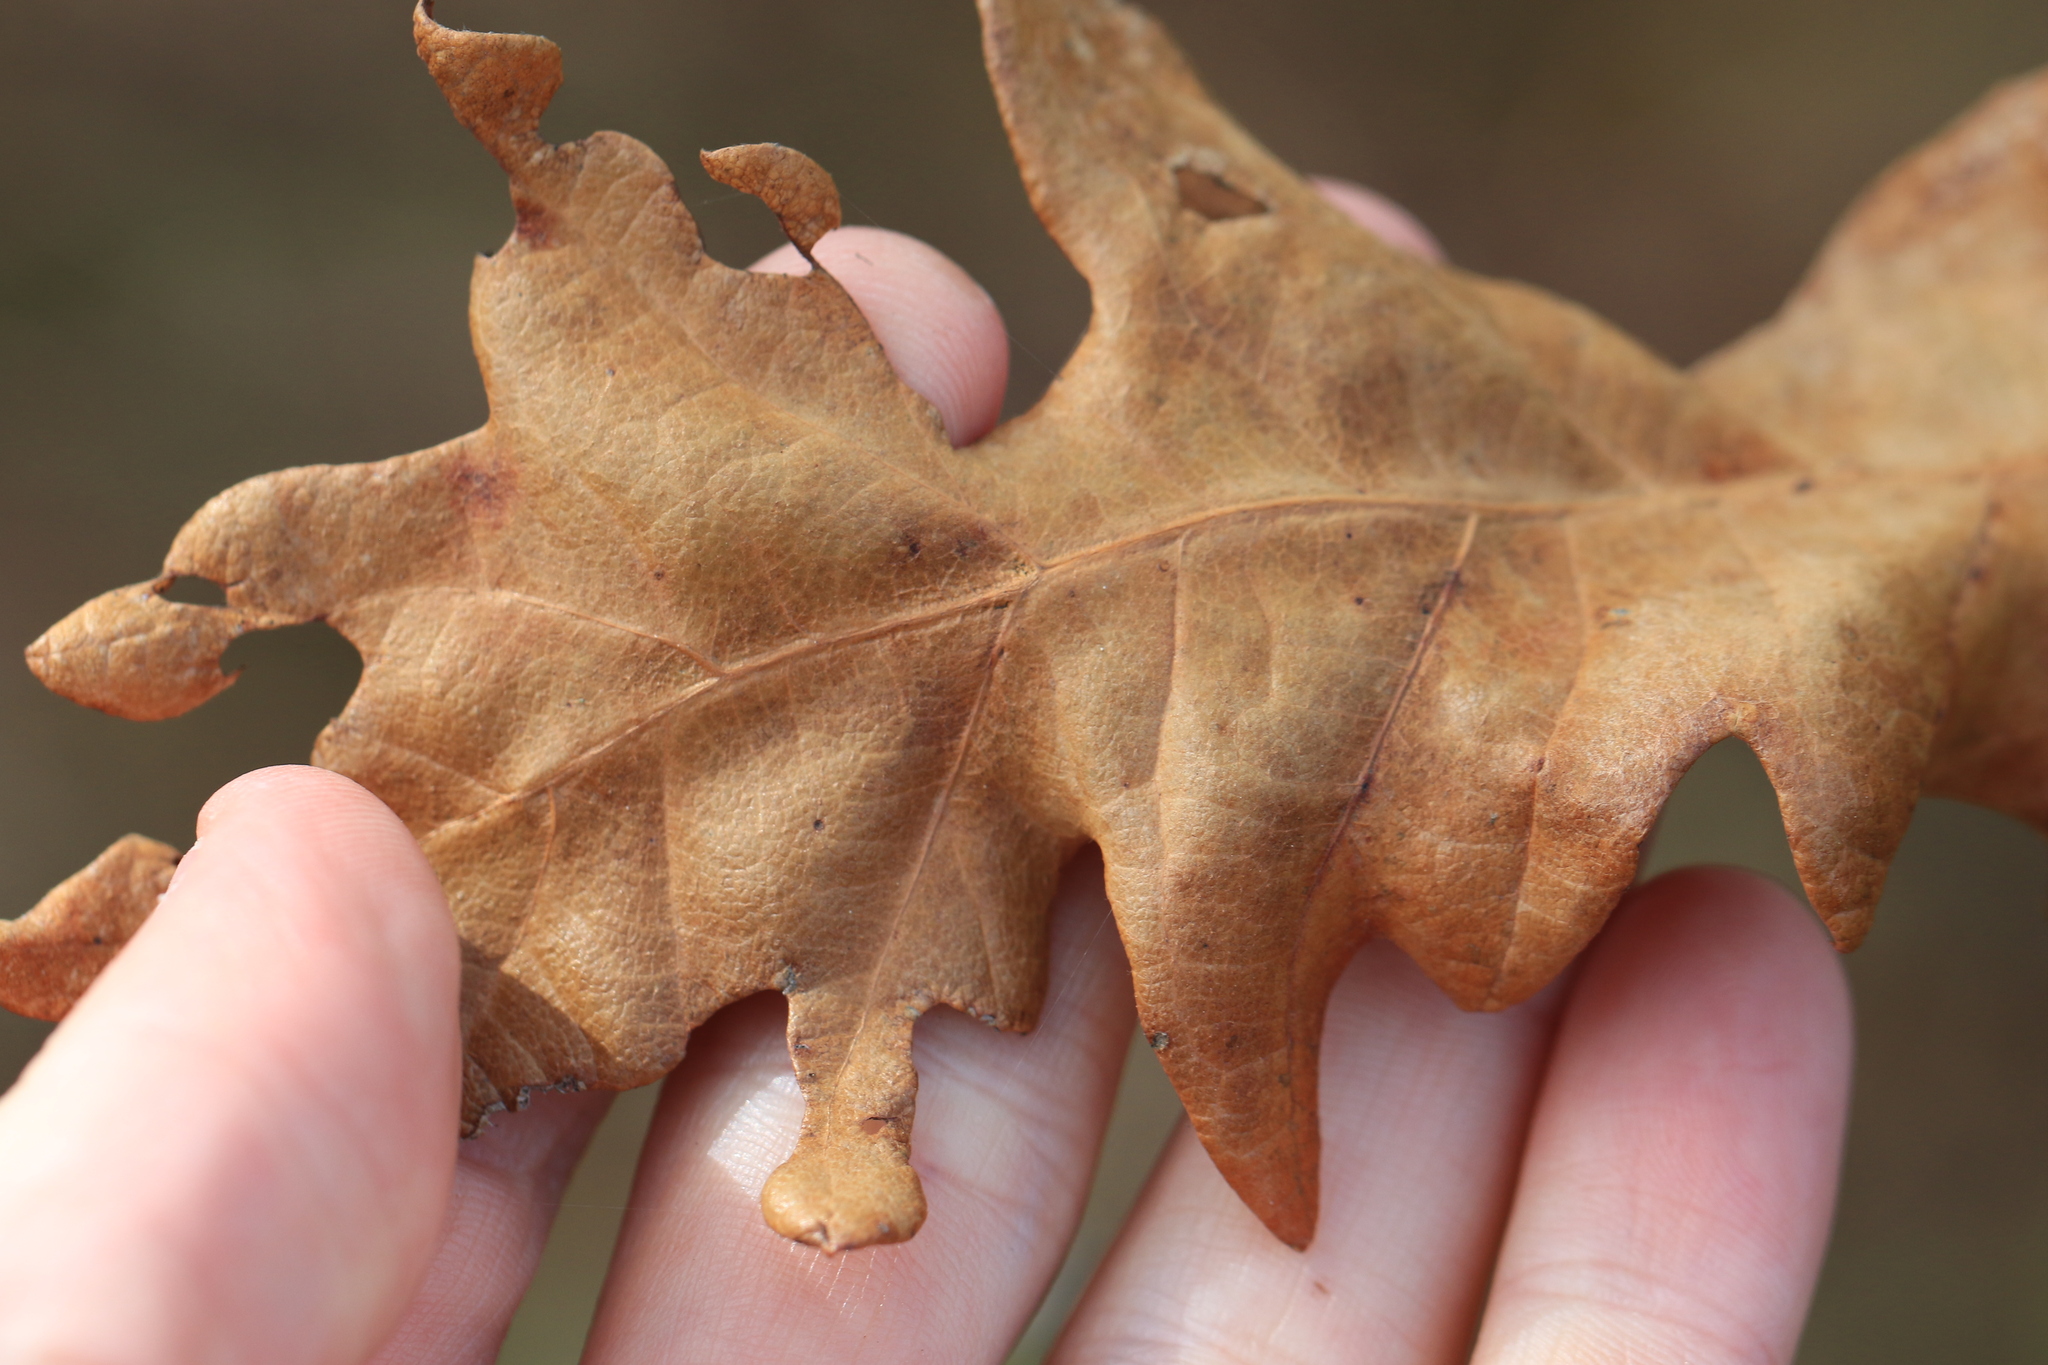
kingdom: Plantae
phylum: Tracheophyta
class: Magnoliopsida
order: Fagales
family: Fagaceae
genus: Quercus
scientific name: Quercus garryana
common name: Garry oak
